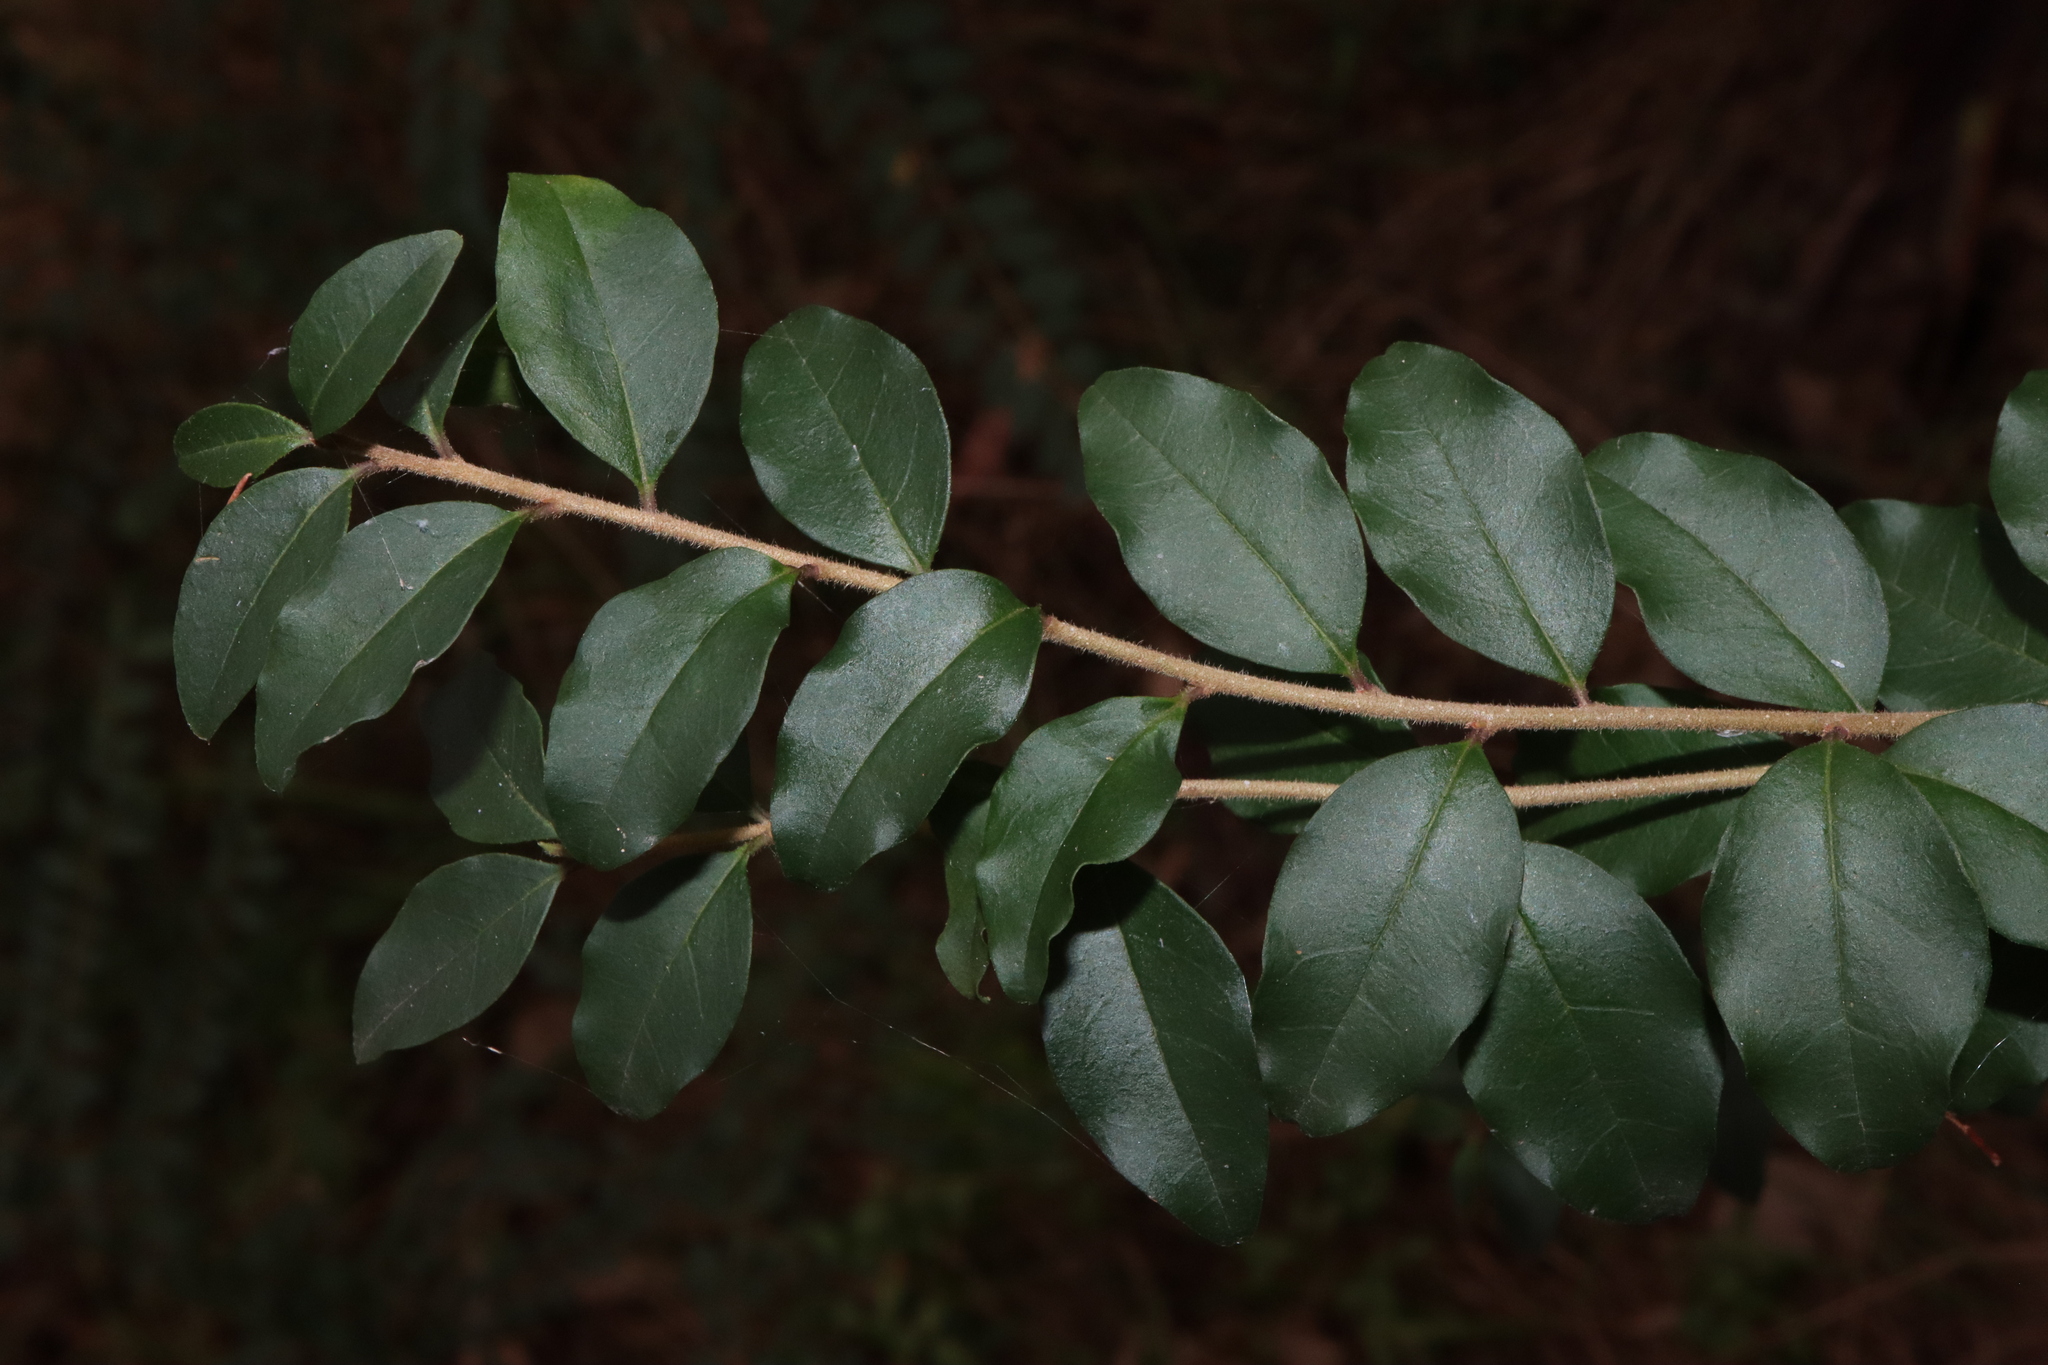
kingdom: Plantae
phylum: Tracheophyta
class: Magnoliopsida
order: Lamiales
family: Oleaceae
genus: Ligustrum
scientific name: Ligustrum sinense
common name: Chinese privet
